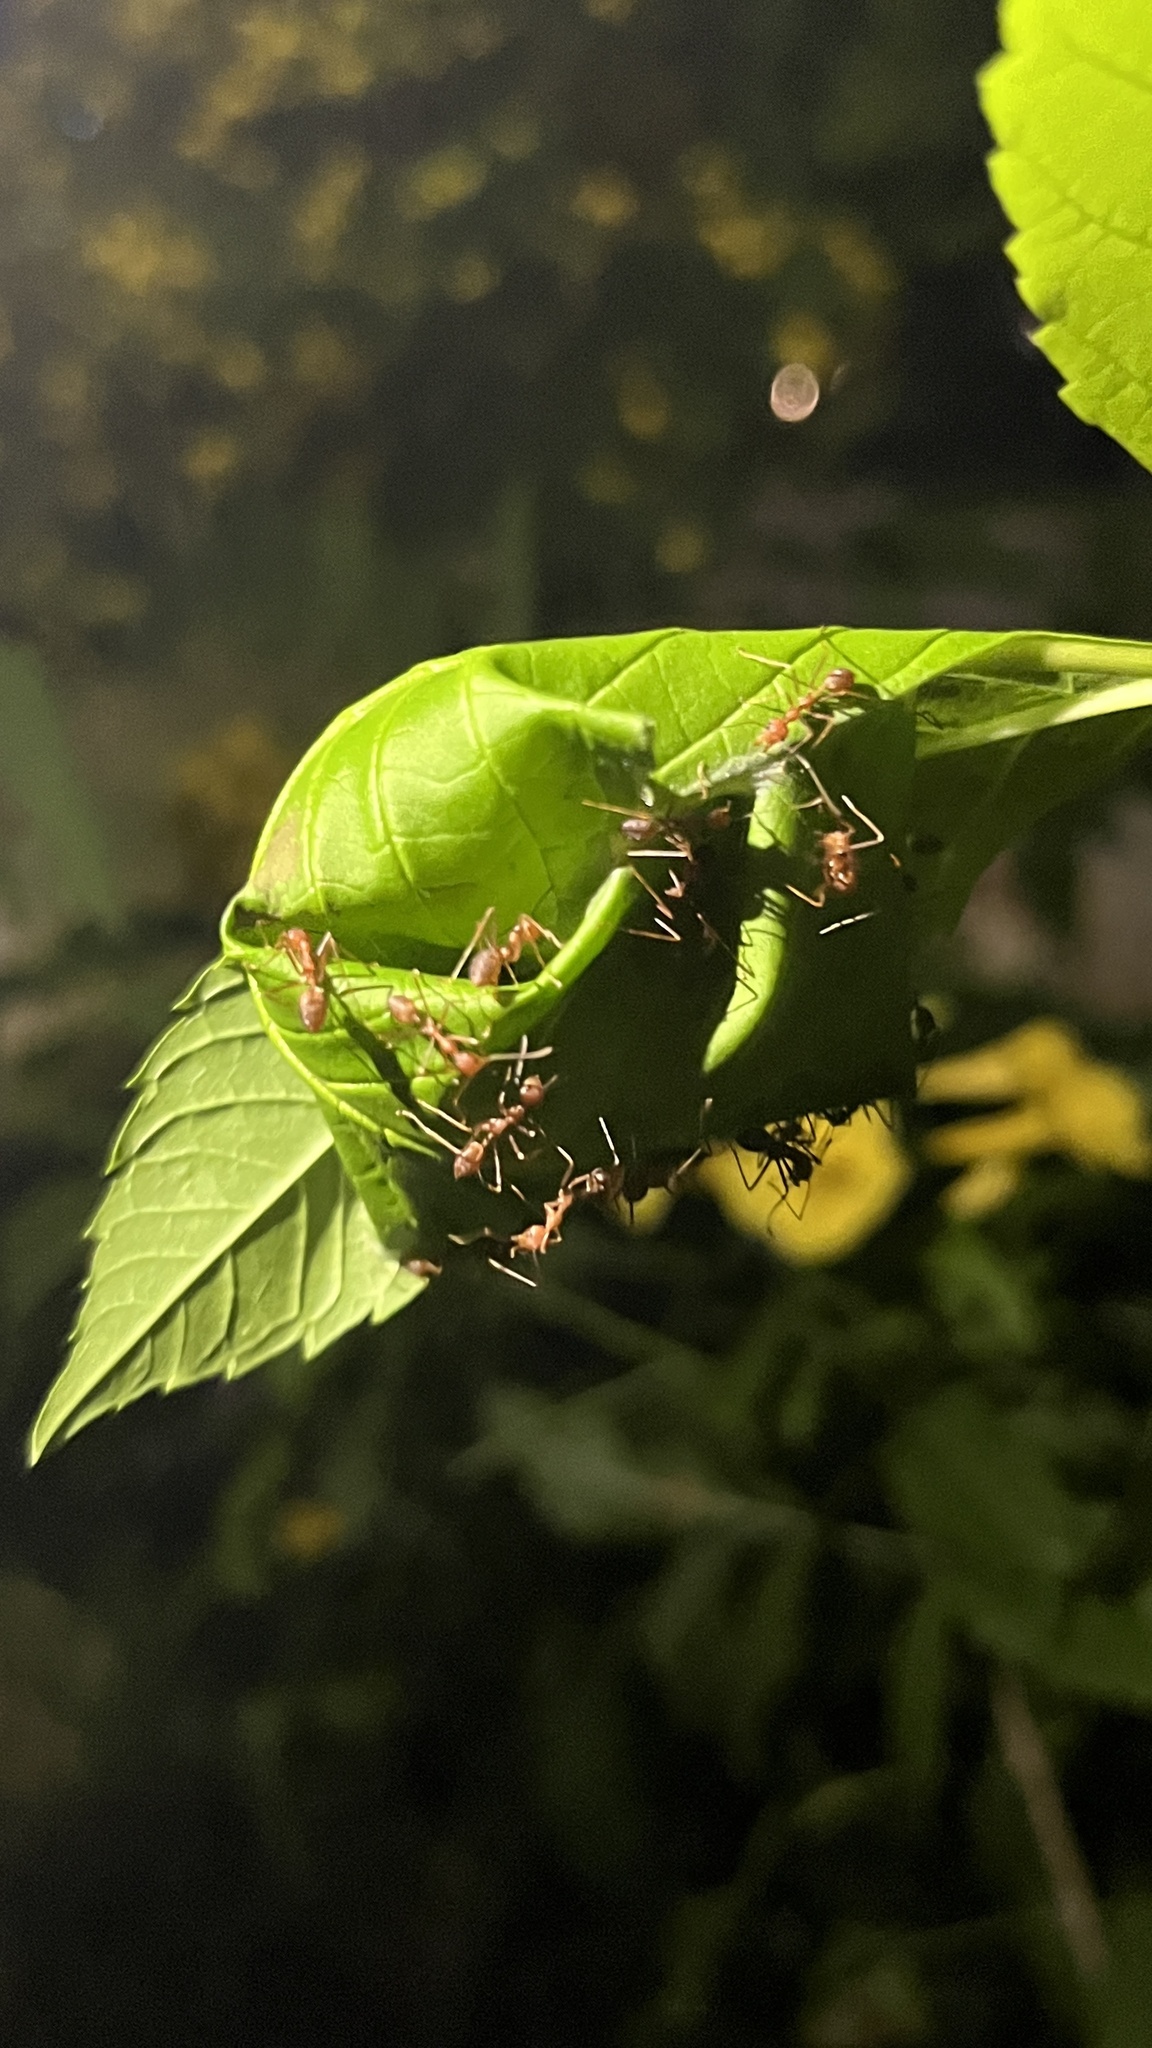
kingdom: Animalia
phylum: Arthropoda
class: Insecta
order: Hymenoptera
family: Formicidae
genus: Oecophylla
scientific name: Oecophylla smaragdina
